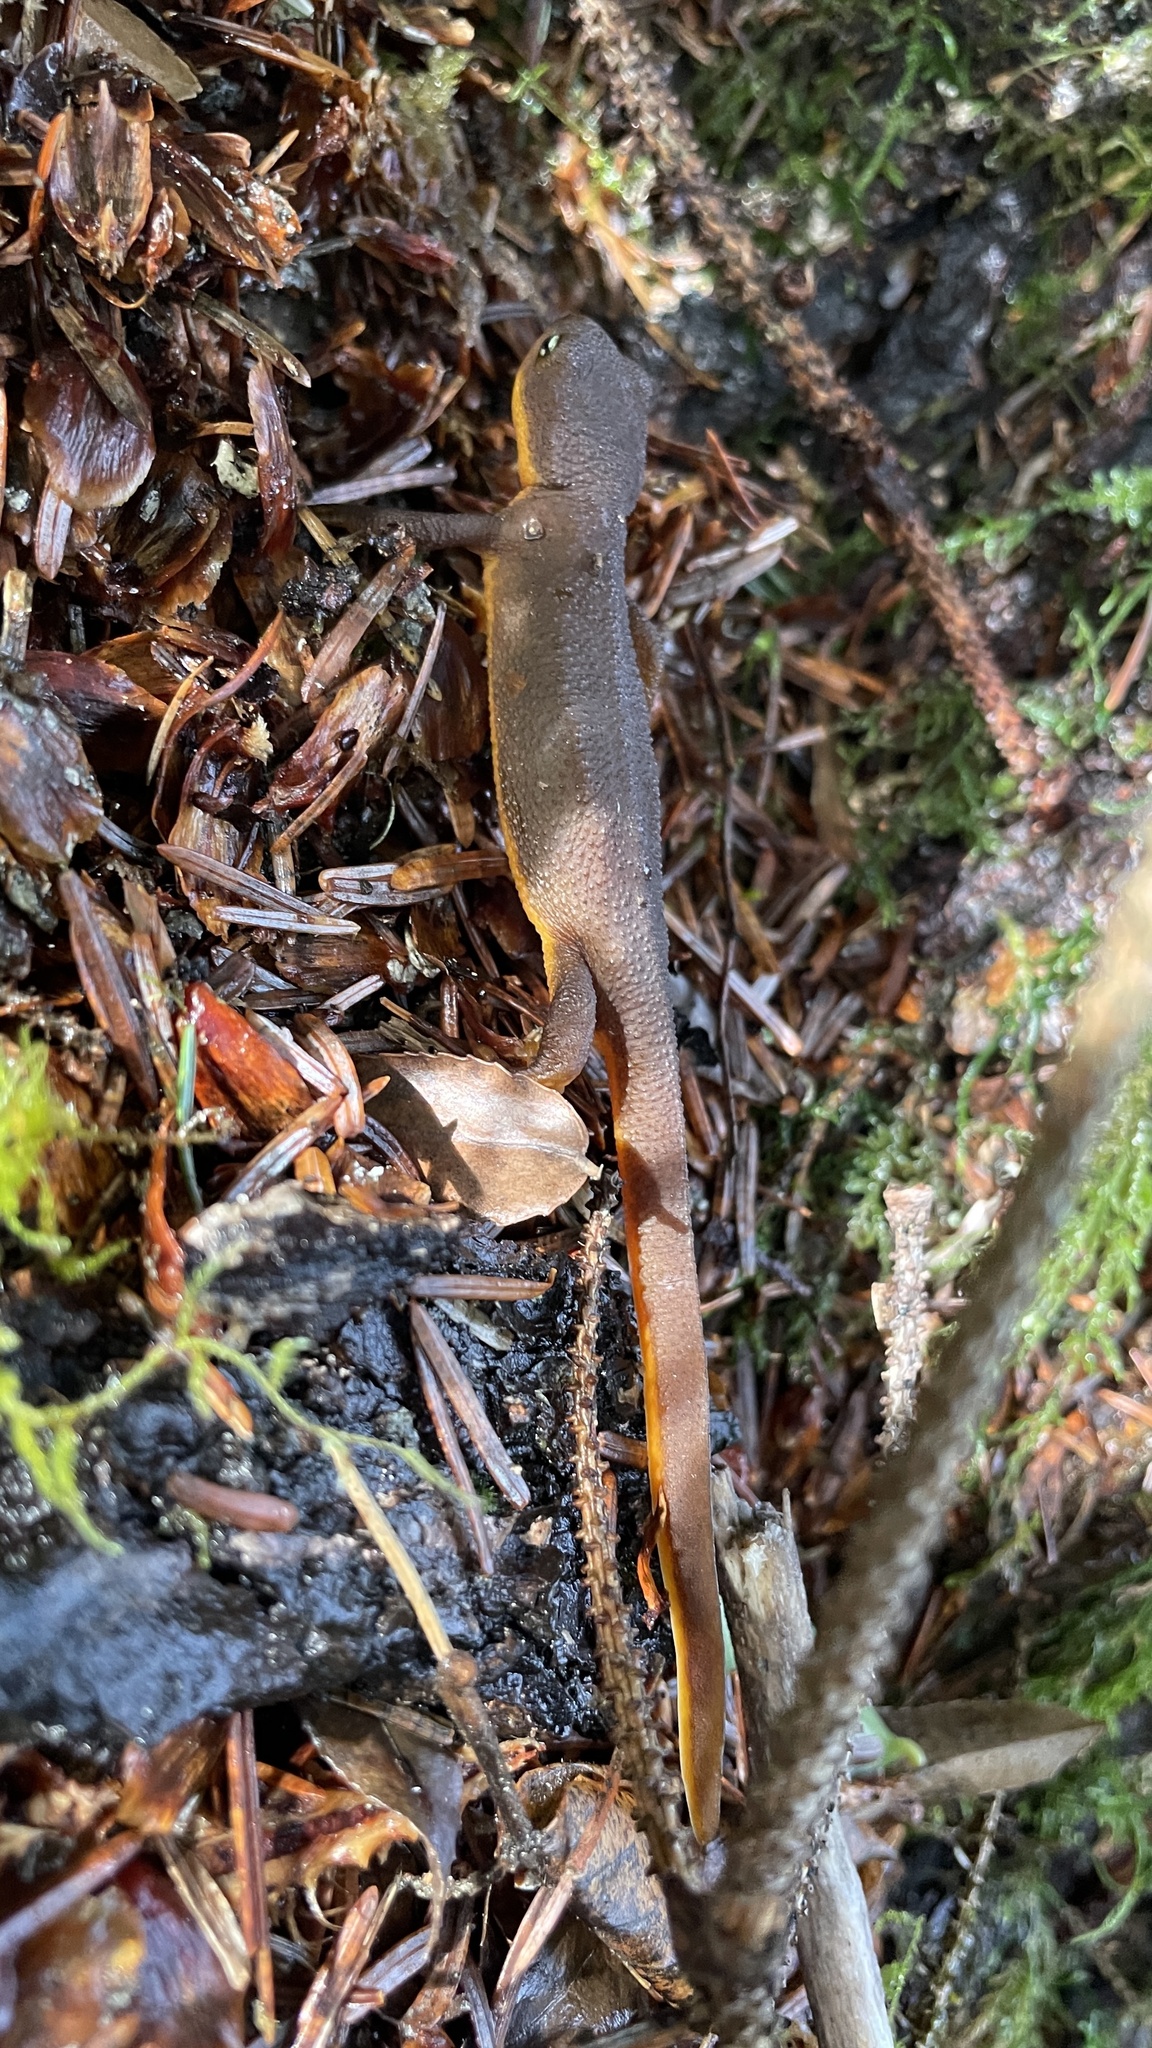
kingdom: Animalia
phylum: Chordata
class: Amphibia
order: Caudata
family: Salamandridae
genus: Taricha
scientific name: Taricha granulosa
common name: Roughskin newt
